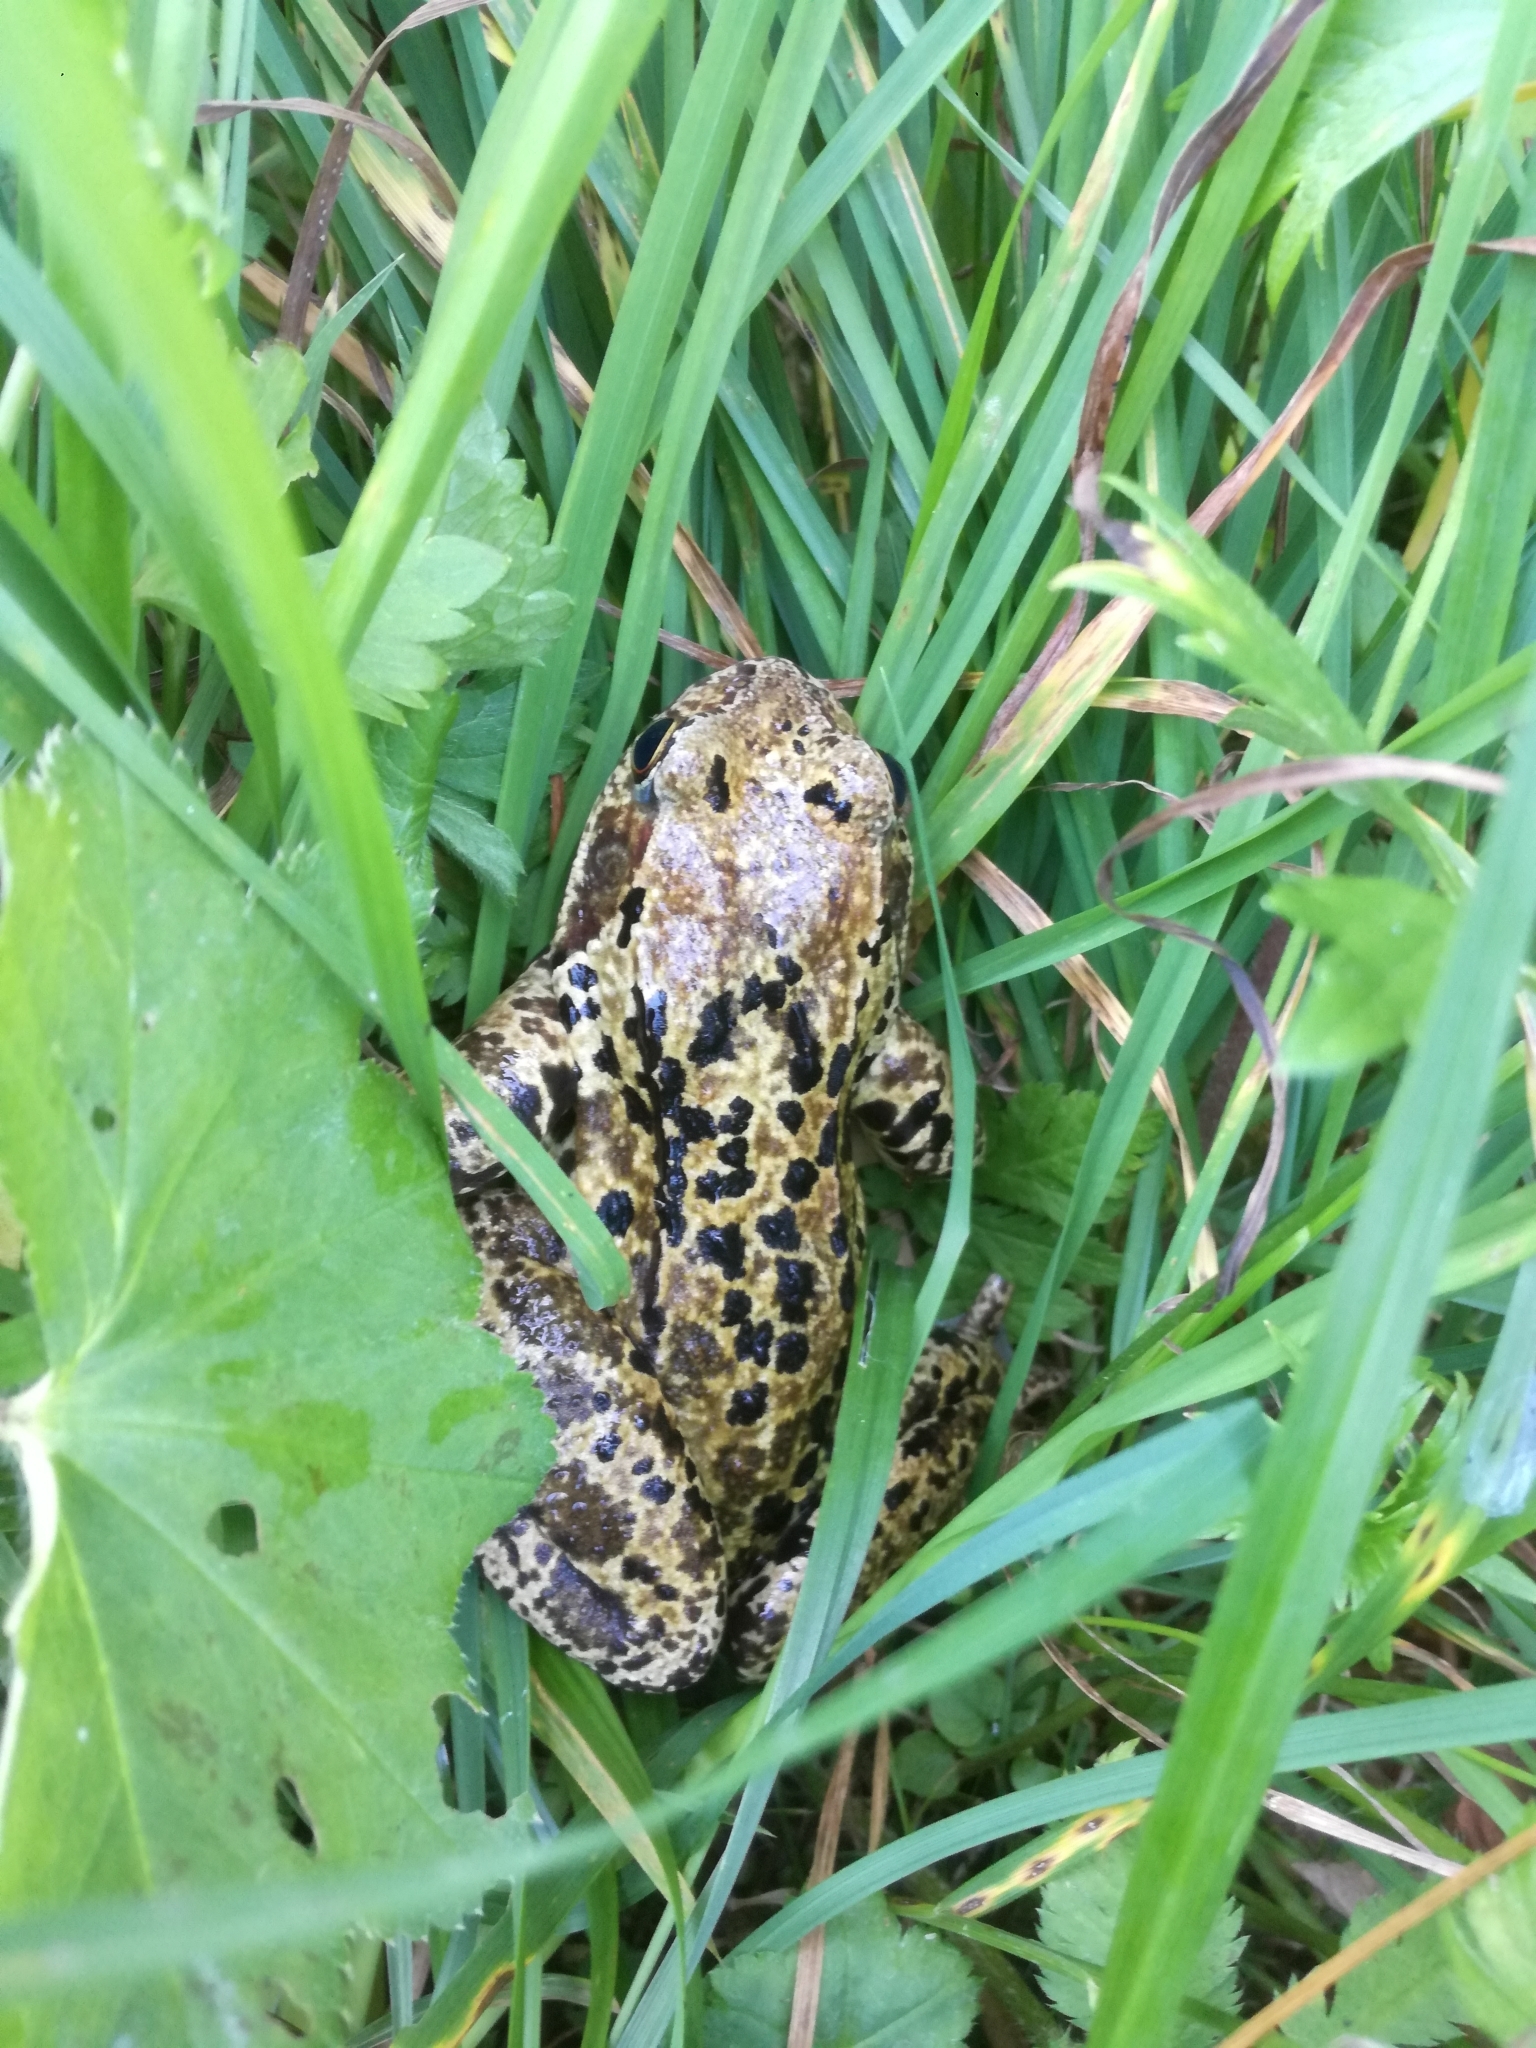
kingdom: Animalia
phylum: Chordata
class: Amphibia
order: Anura
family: Ranidae
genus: Rana
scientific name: Rana temporaria
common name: Common frog
